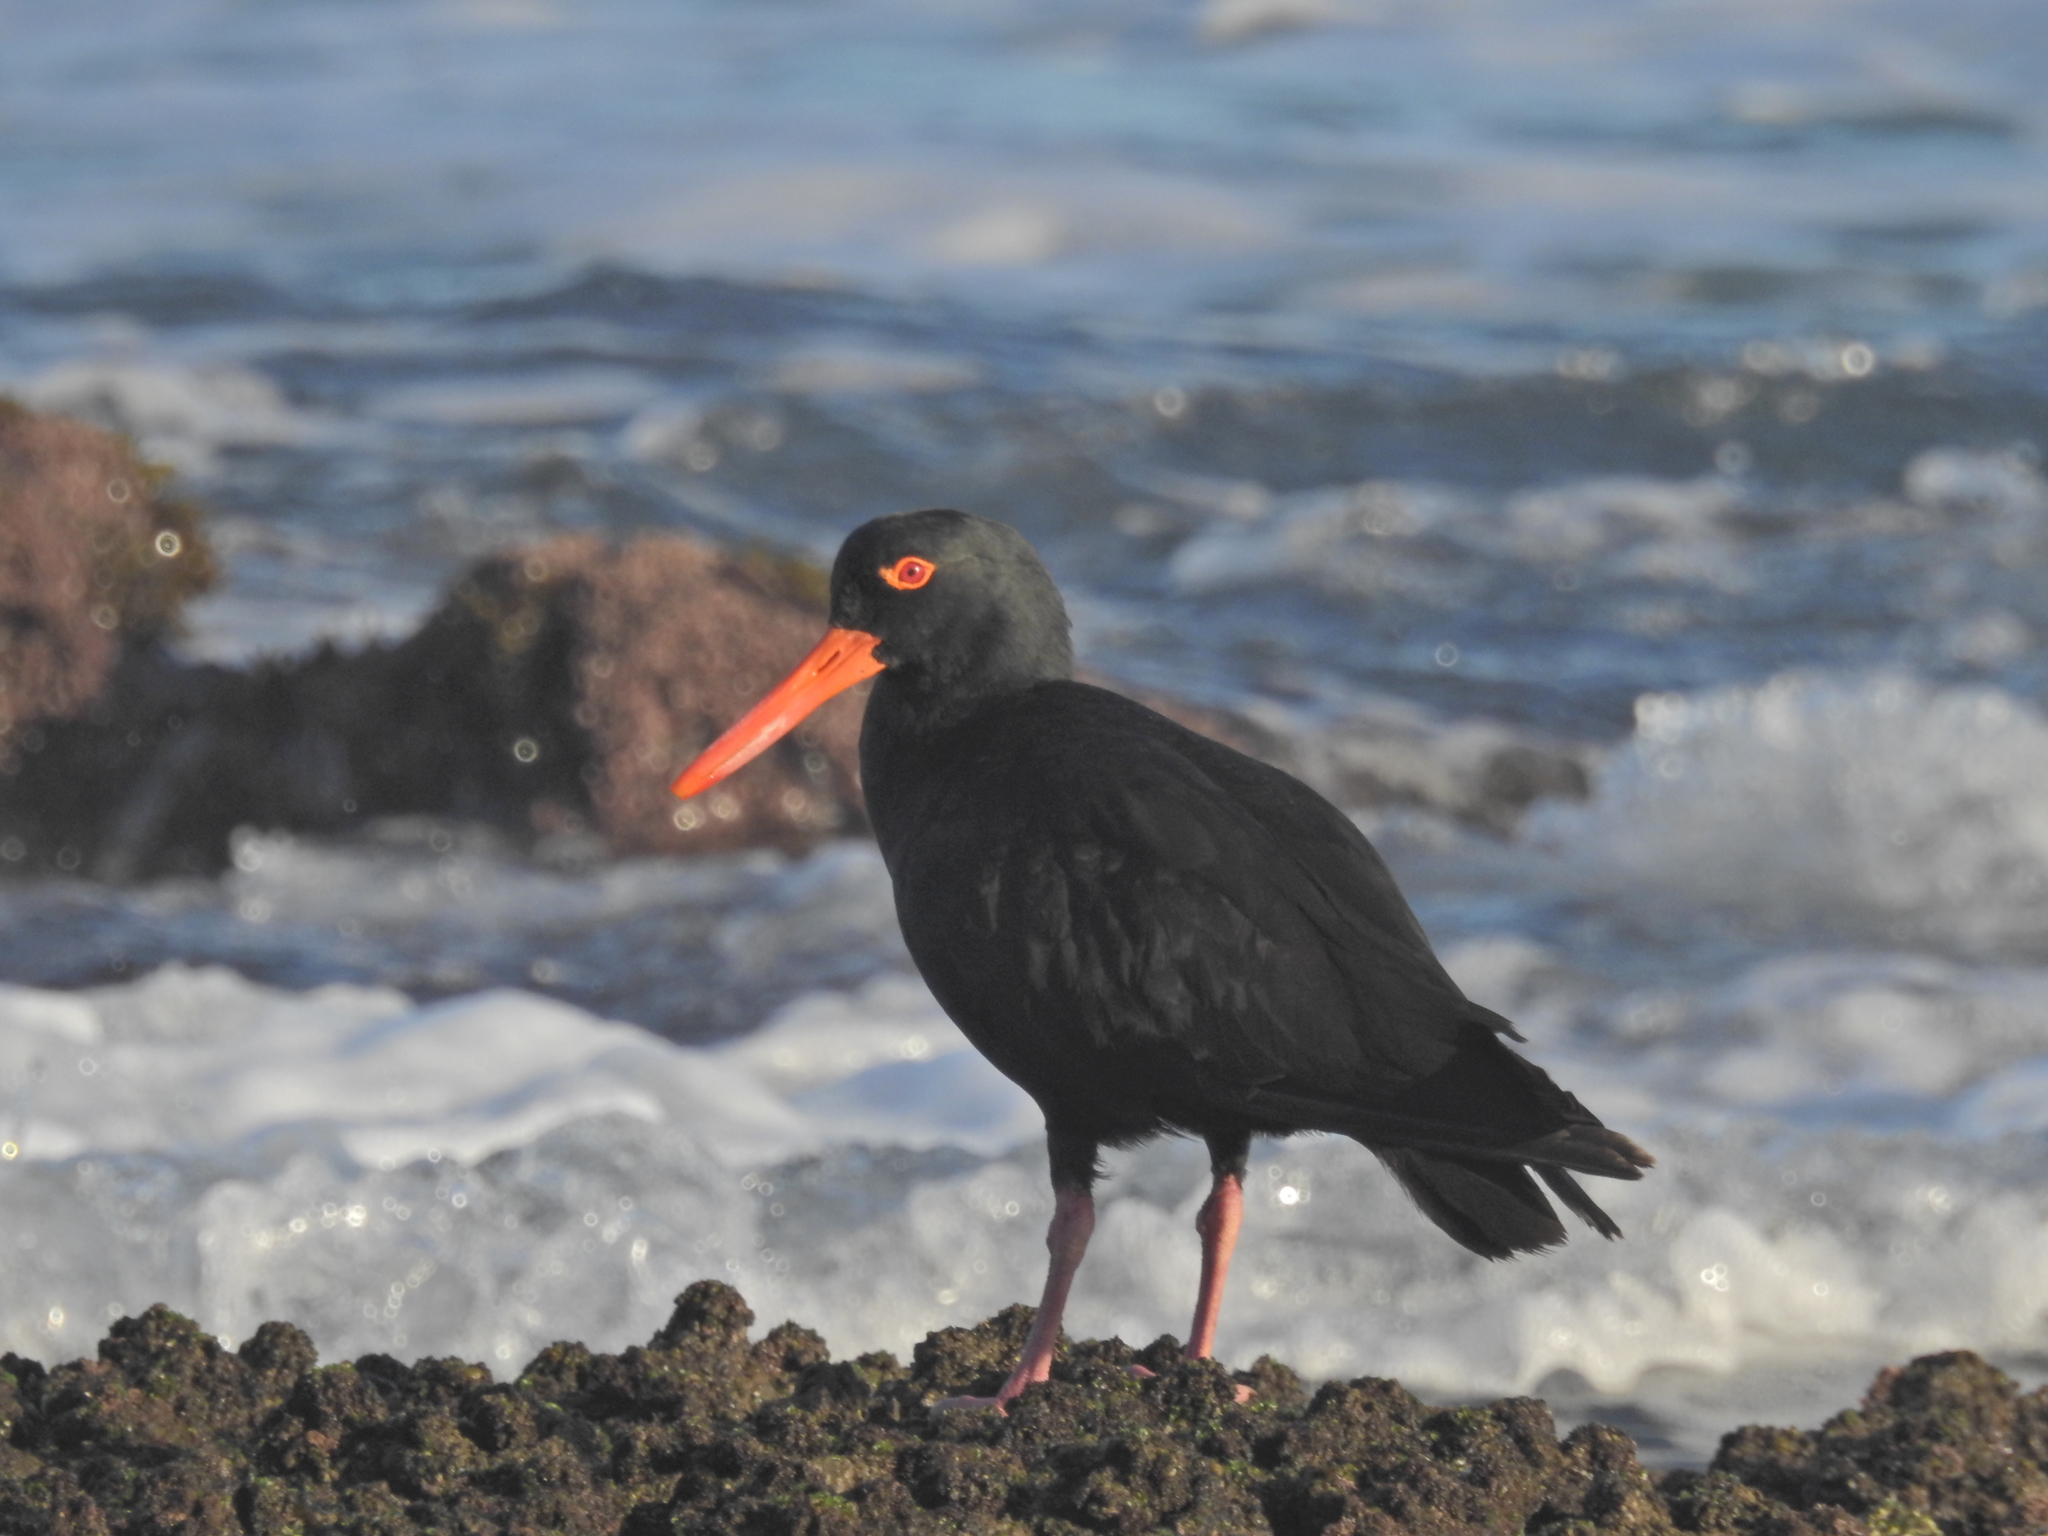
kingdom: Animalia
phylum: Chordata
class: Aves
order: Charadriiformes
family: Haematopodidae
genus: Haematopus
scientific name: Haematopus fuliginosus
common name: Sooty oystercatcher
